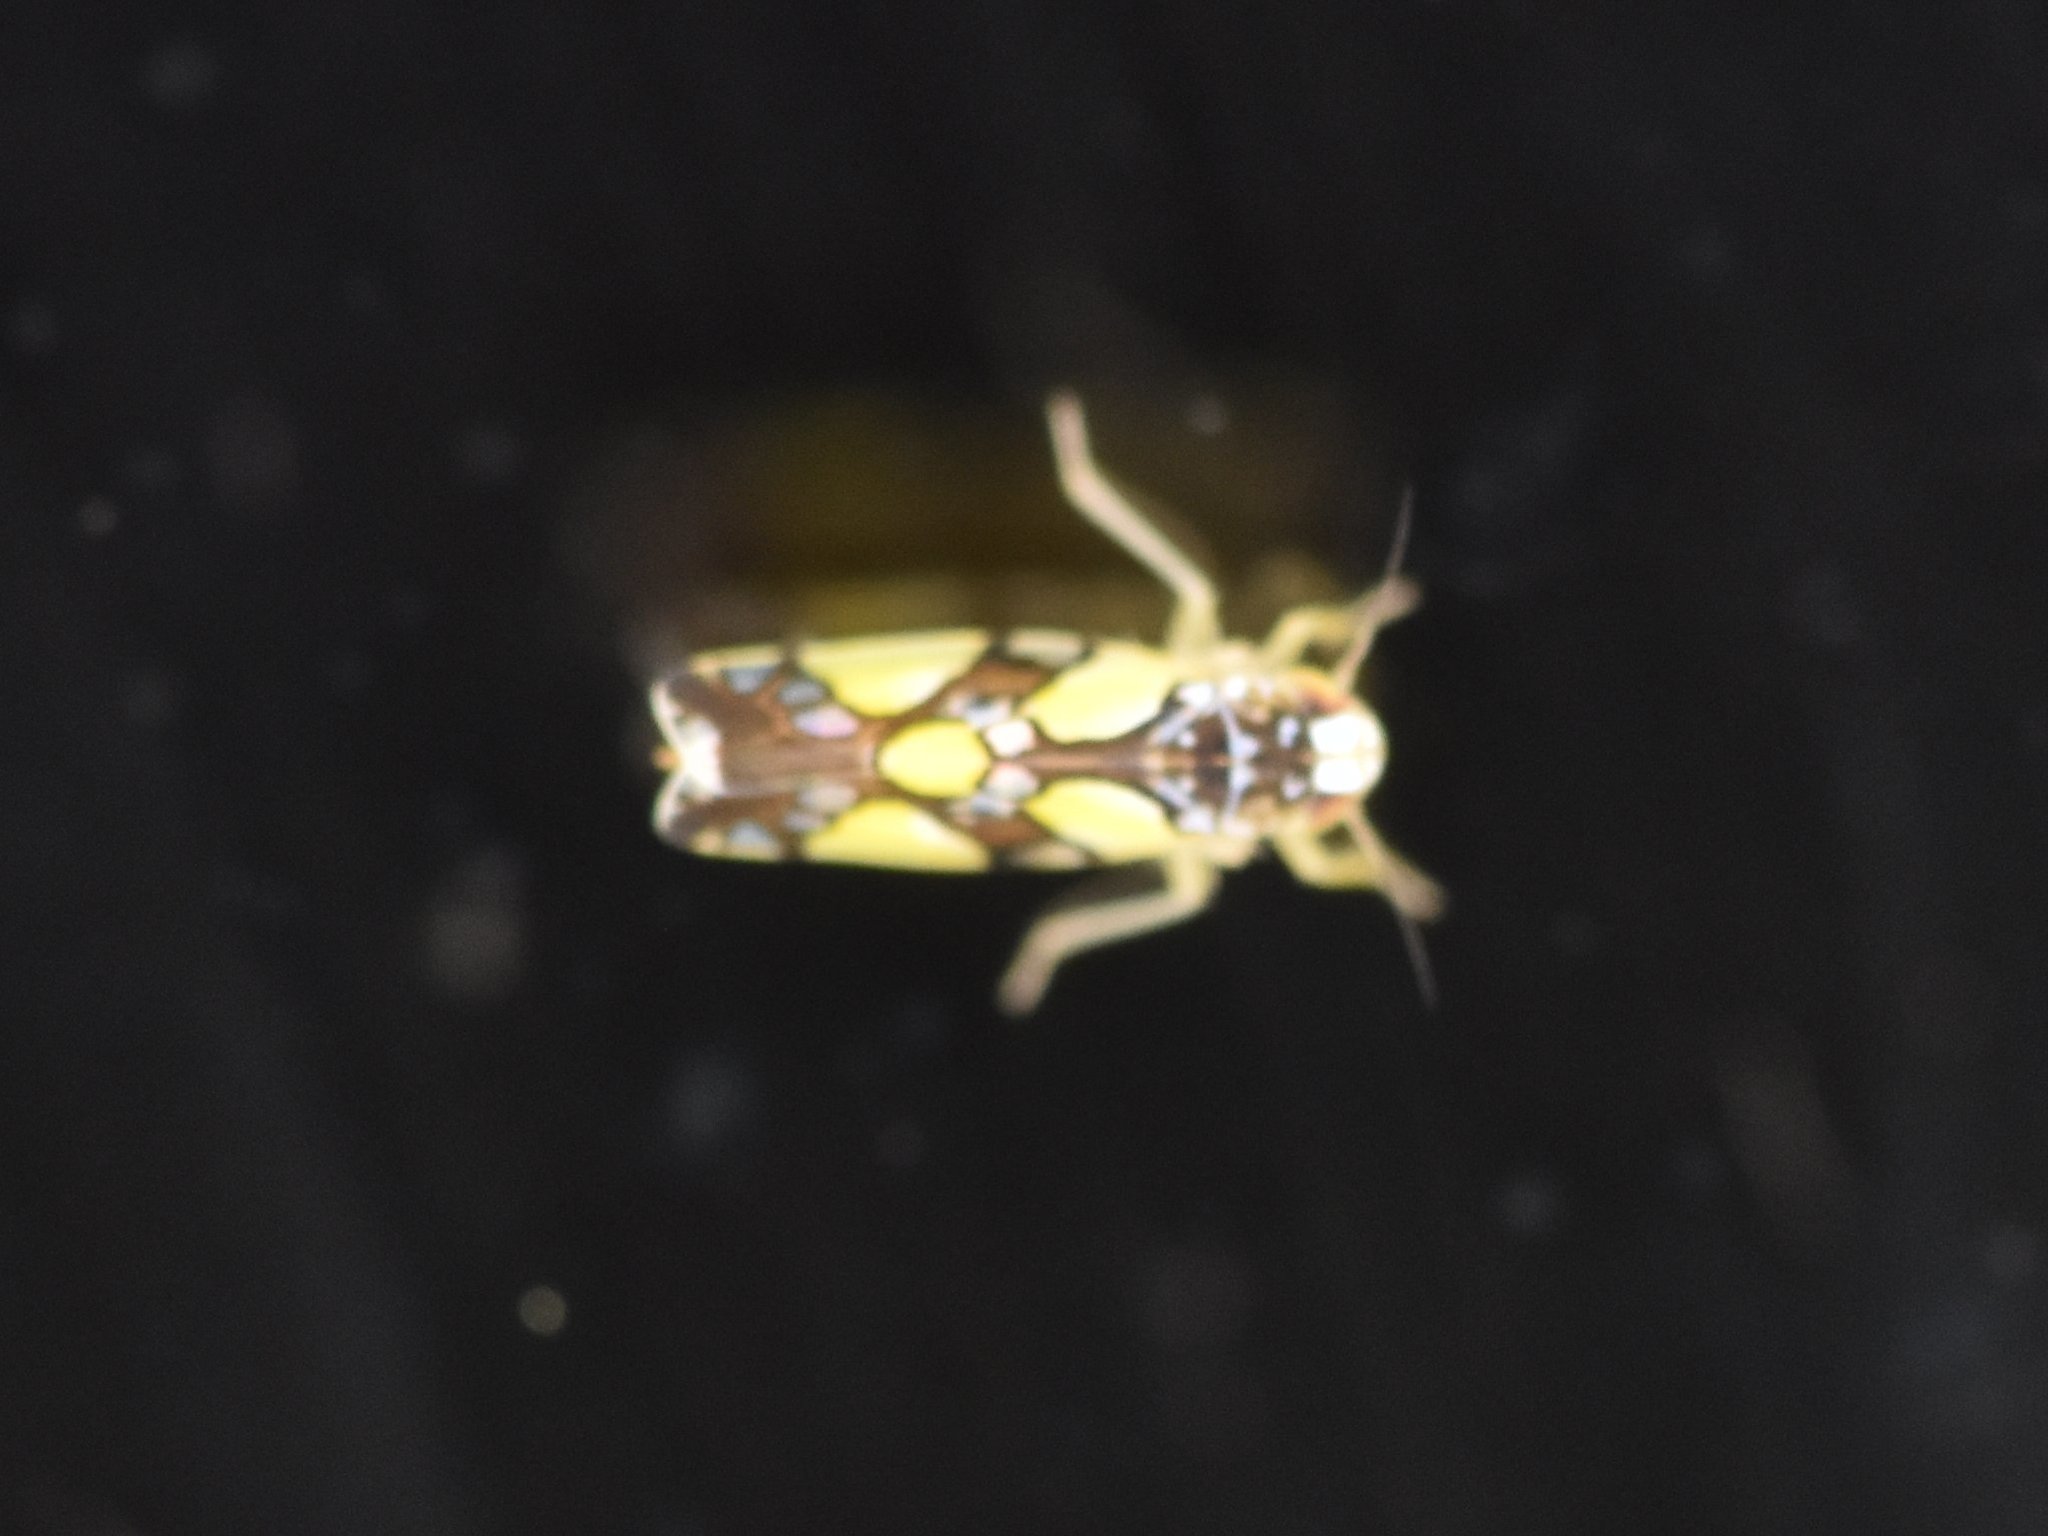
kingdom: Animalia
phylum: Arthropoda
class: Insecta
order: Hemiptera
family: Cicadellidae
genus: Protalebrella
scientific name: Protalebrella brasiliensis
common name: Brasilian leafhopper
